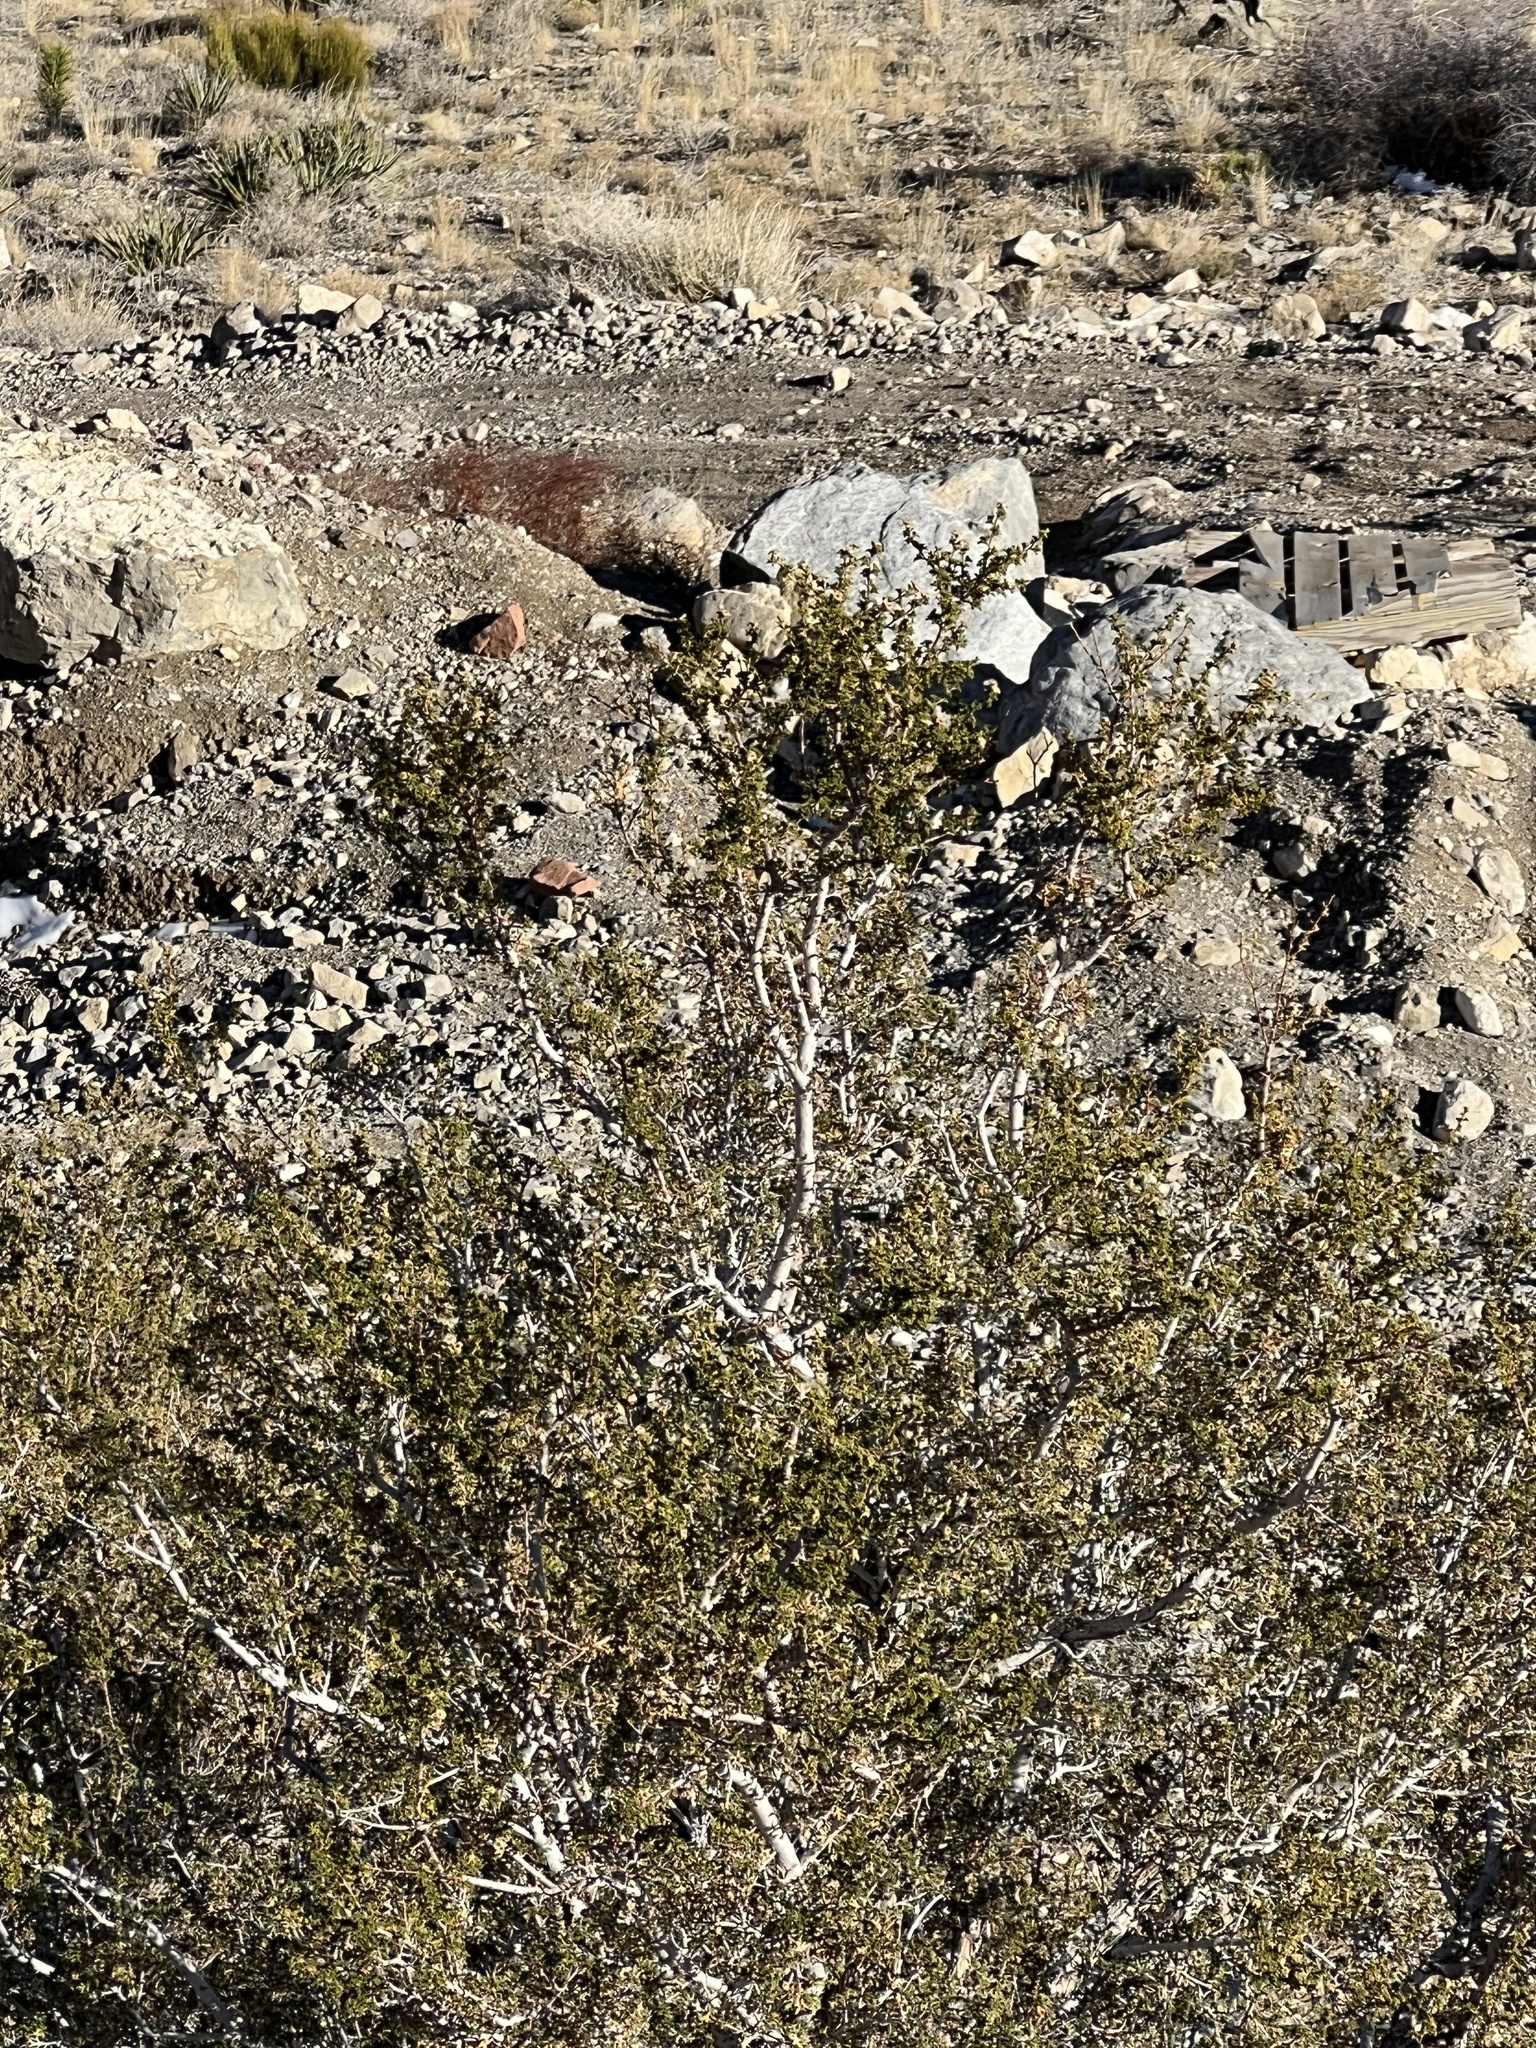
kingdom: Plantae
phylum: Tracheophyta
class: Magnoliopsida
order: Zygophyllales
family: Zygophyllaceae
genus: Larrea
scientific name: Larrea tridentata
